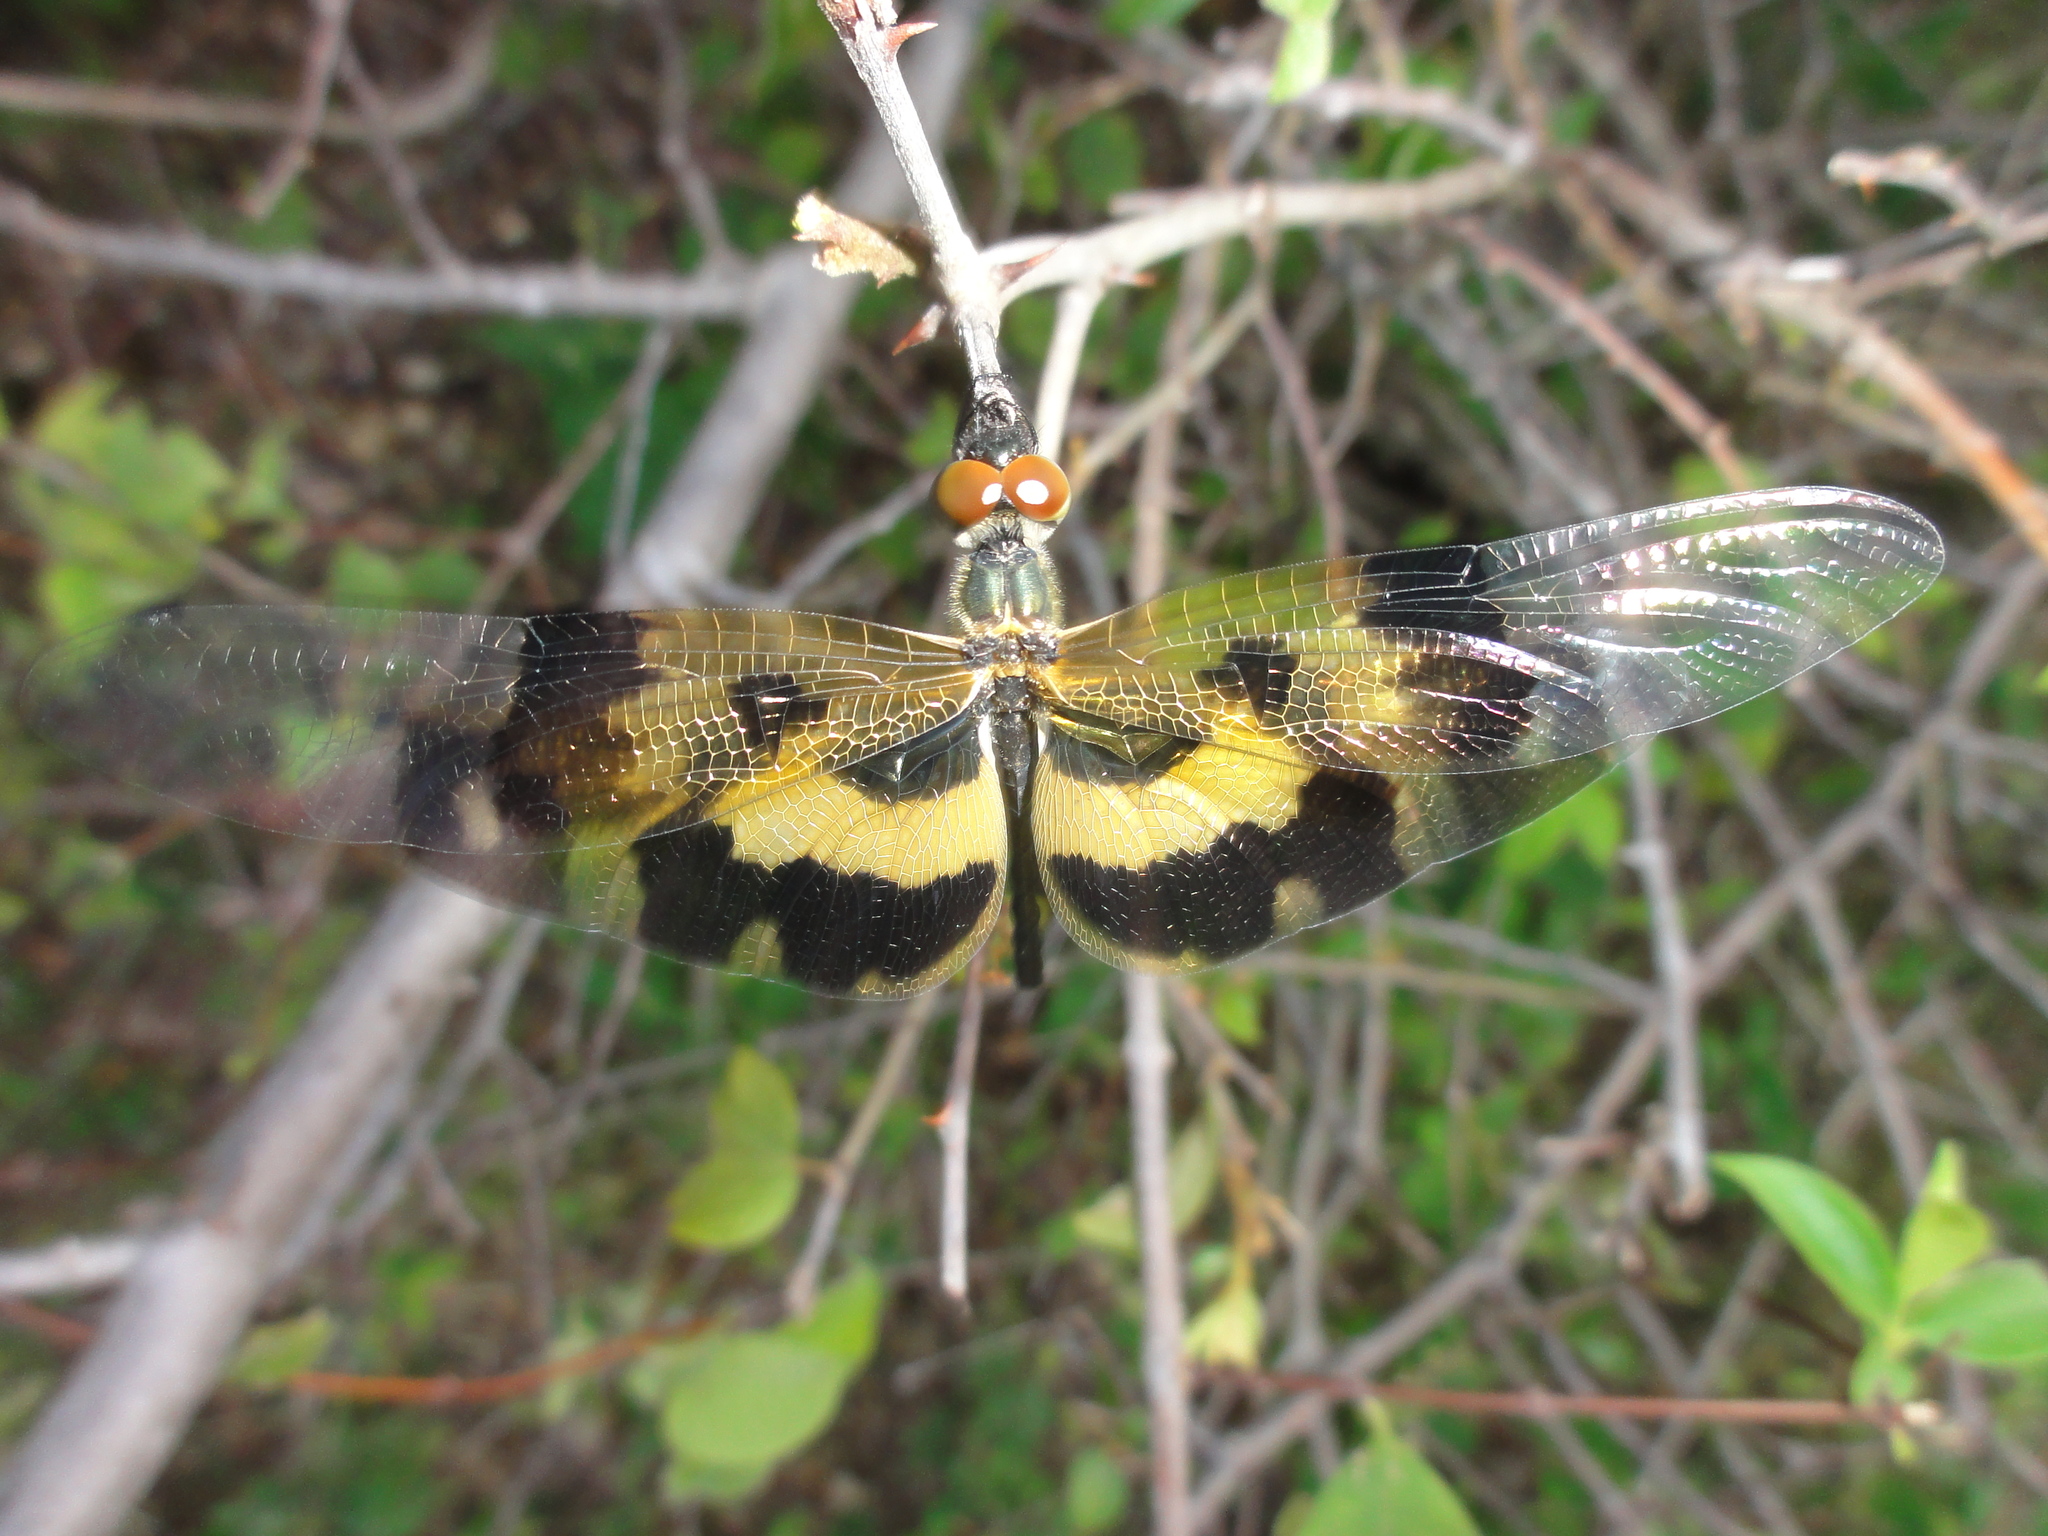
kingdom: Animalia
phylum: Arthropoda
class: Insecta
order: Odonata
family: Libellulidae
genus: Rhyothemis
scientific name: Rhyothemis variegata
